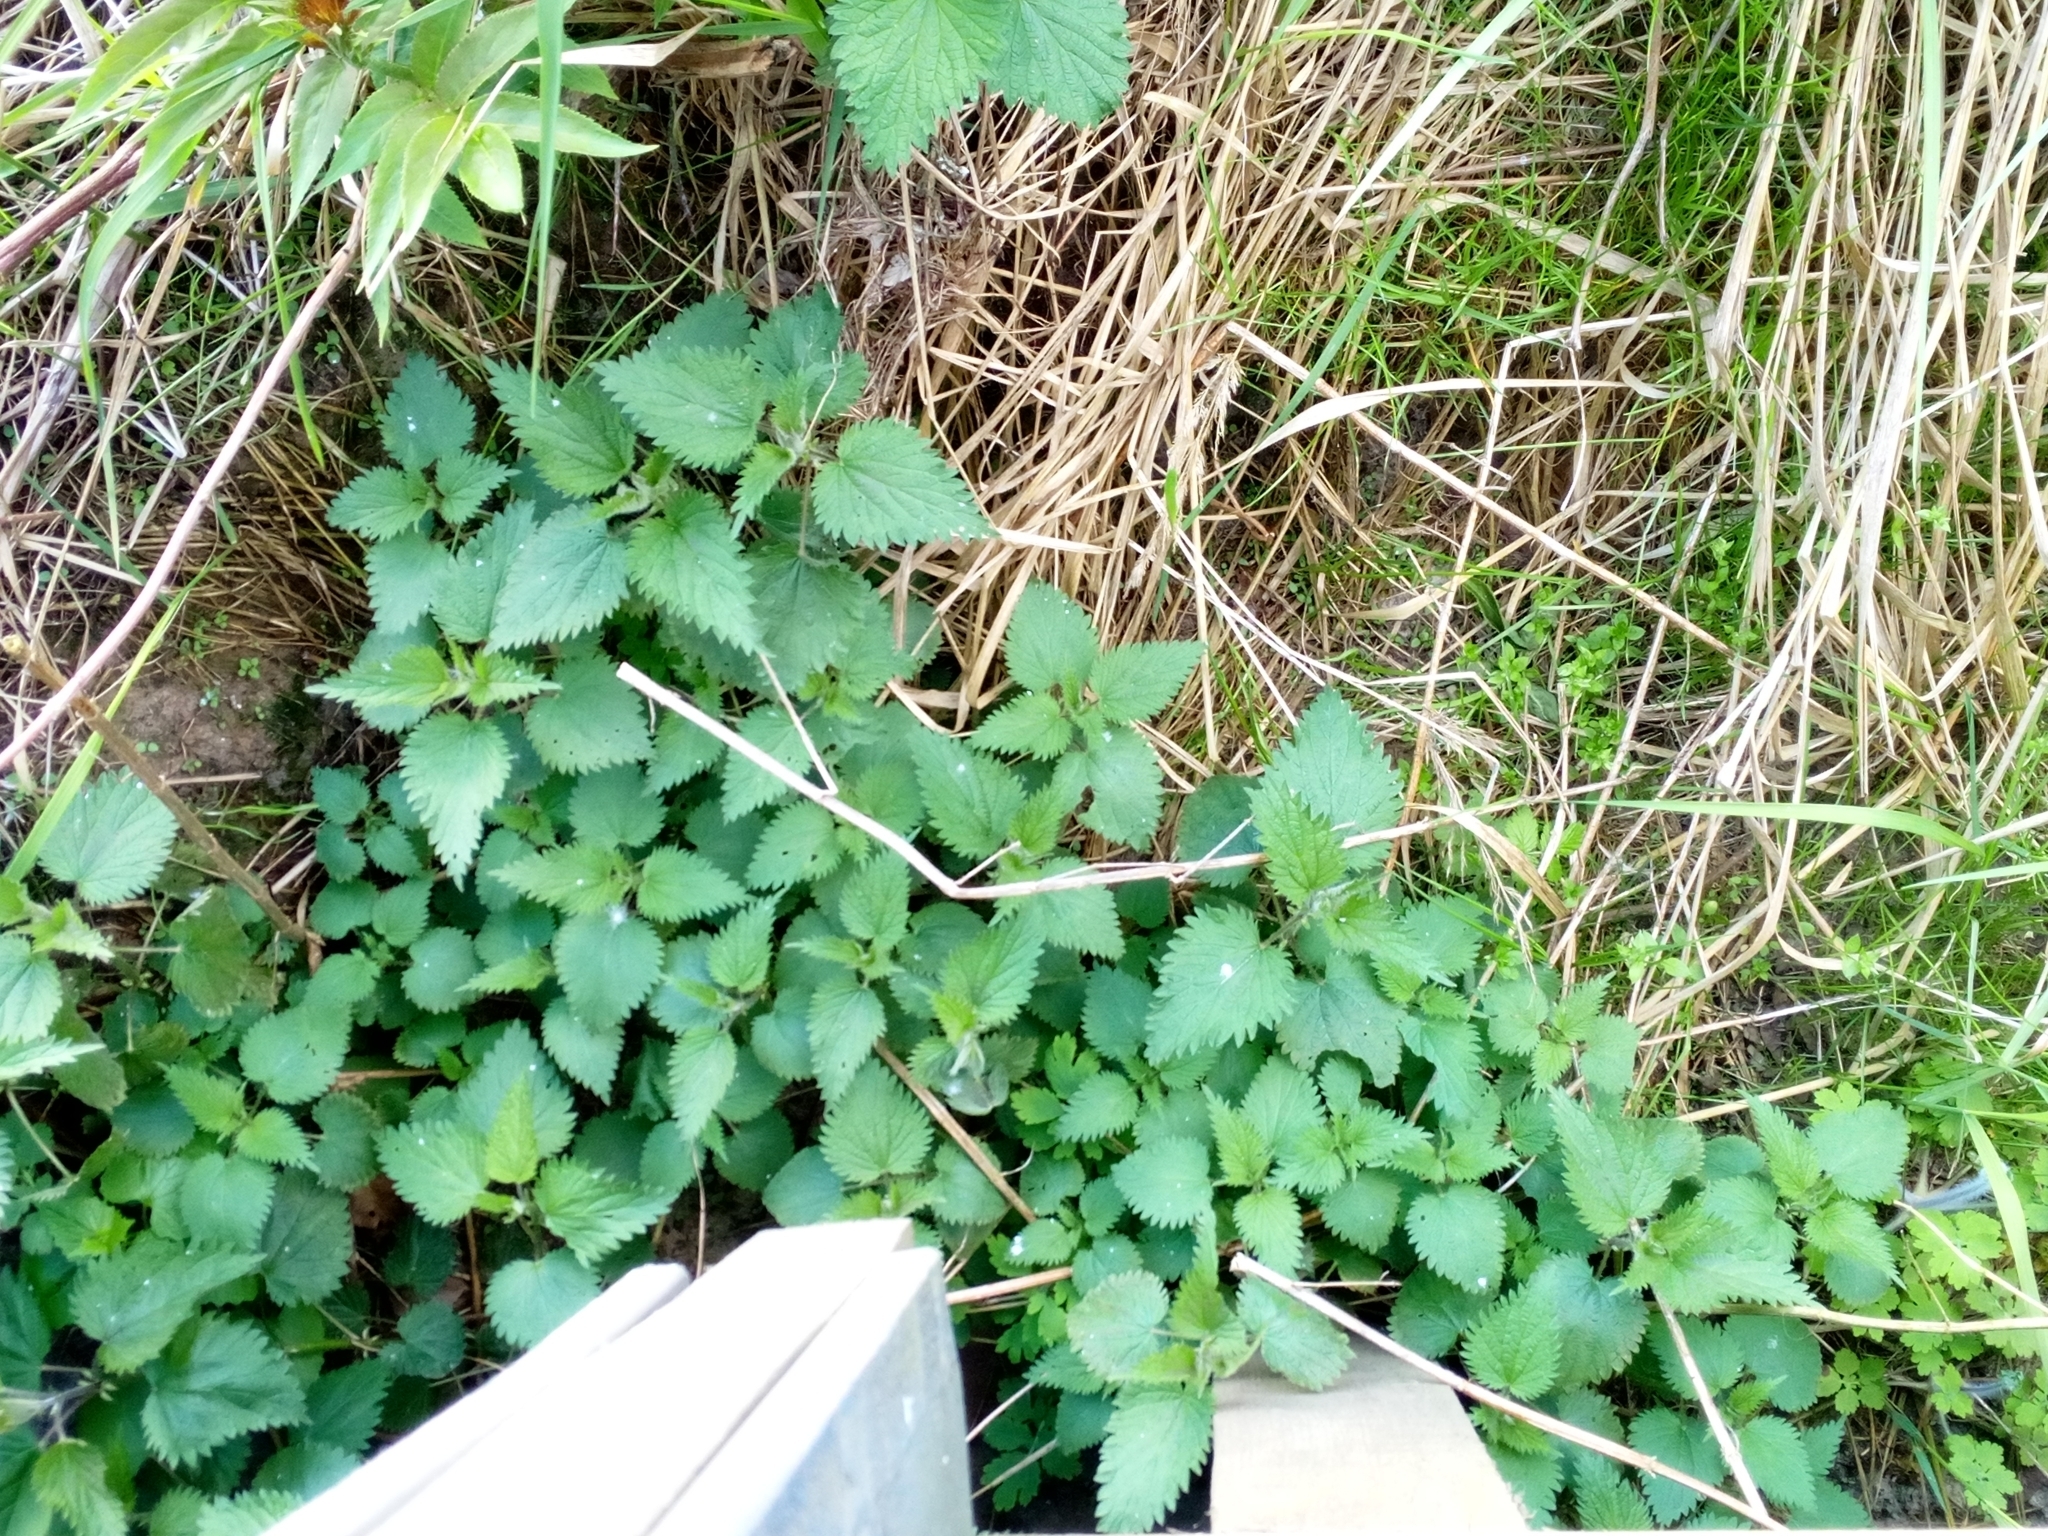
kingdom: Plantae
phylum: Tracheophyta
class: Magnoliopsida
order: Rosales
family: Urticaceae
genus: Urtica
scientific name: Urtica dioica
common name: Common nettle
